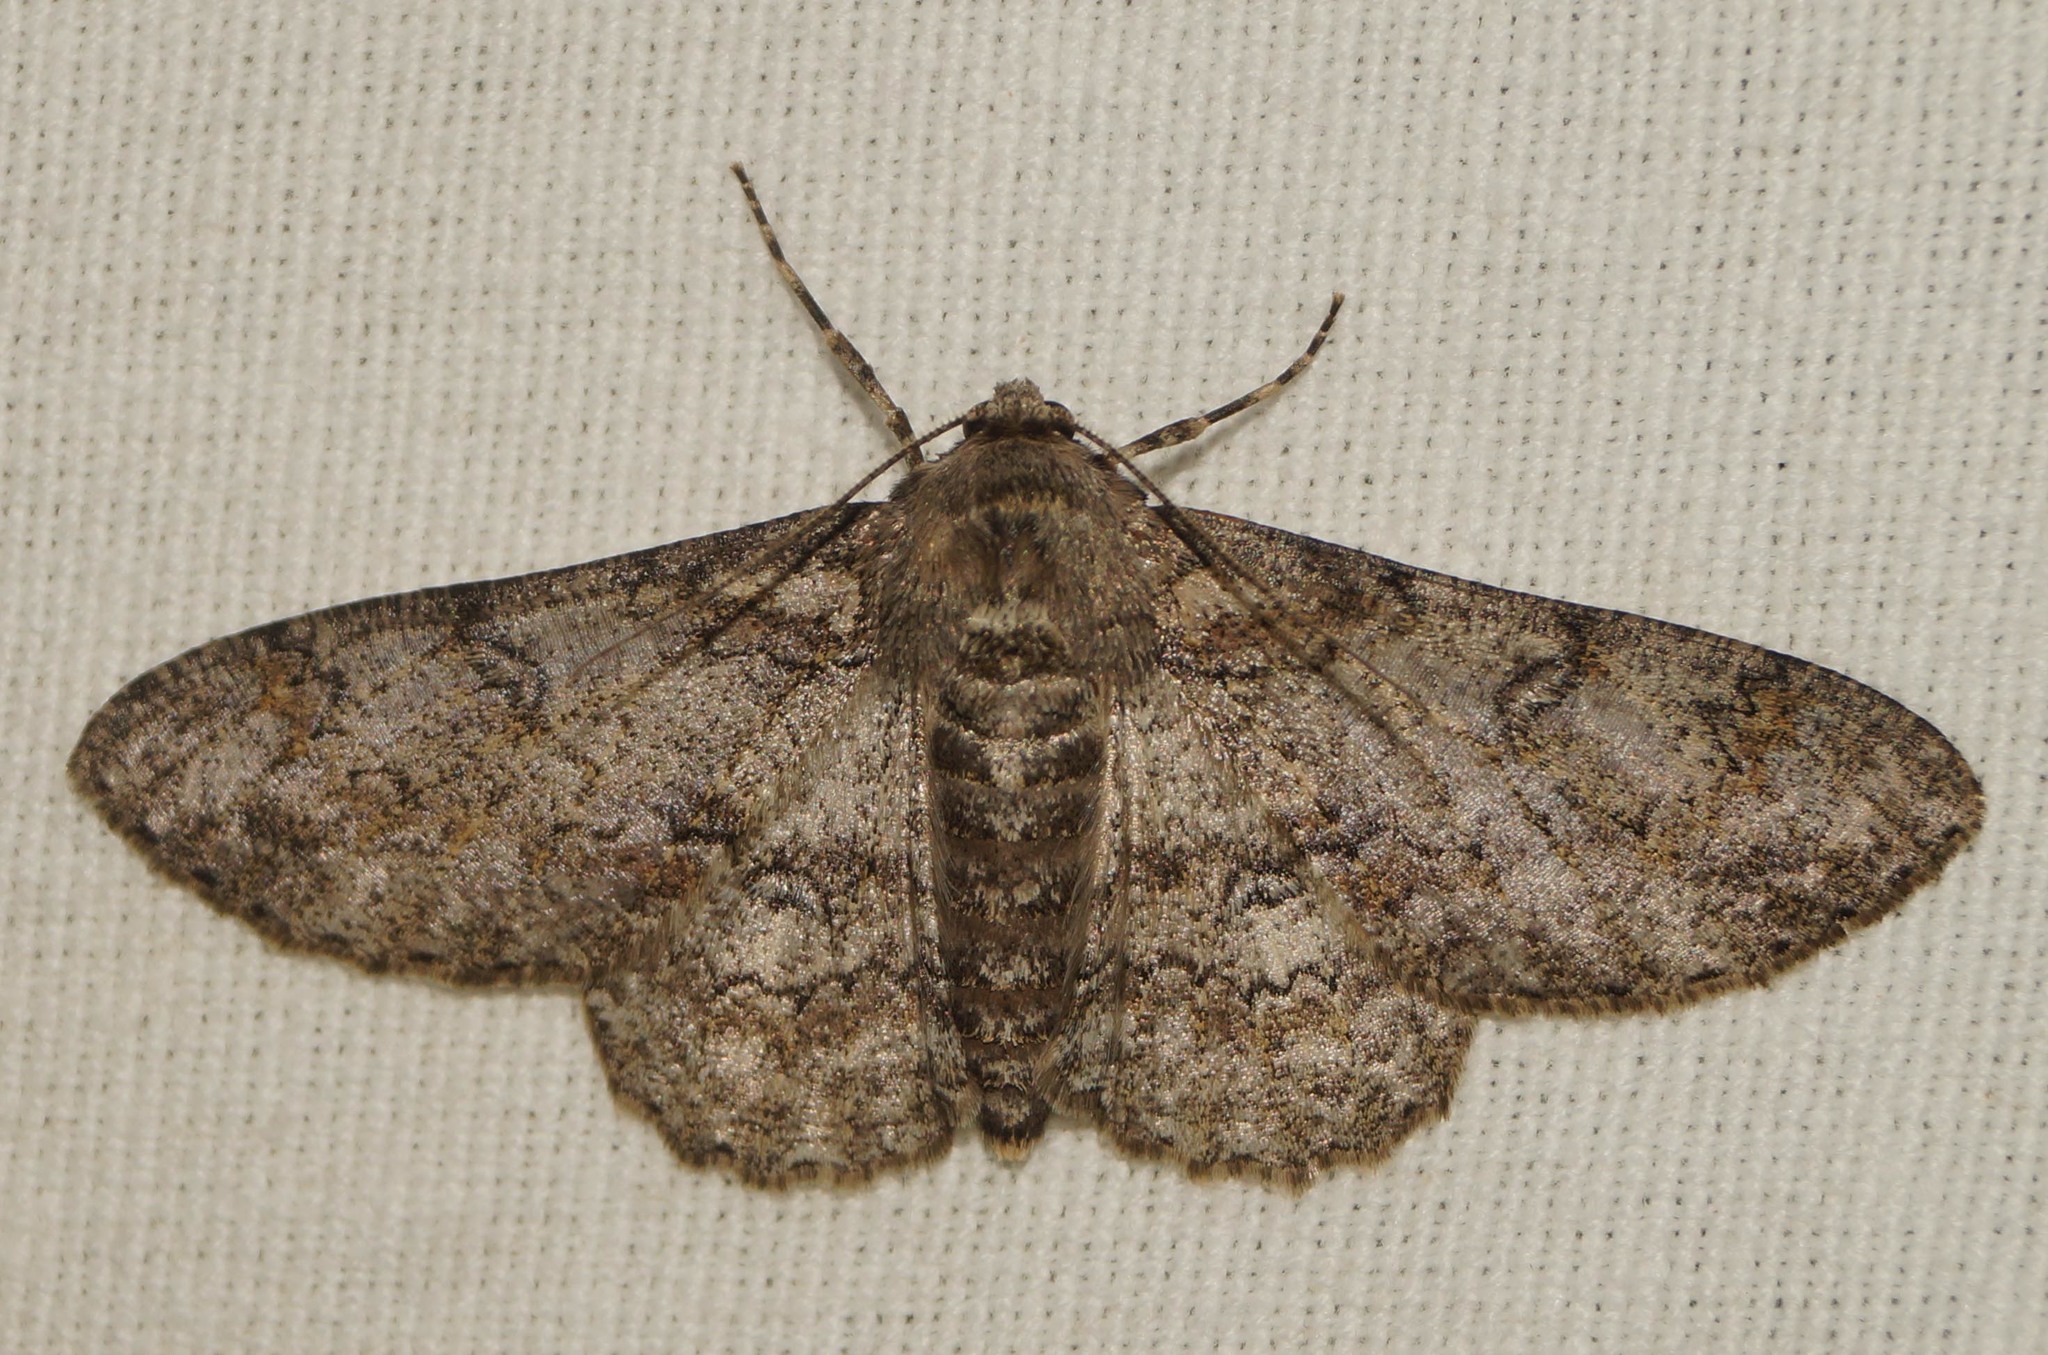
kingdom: Animalia
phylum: Arthropoda
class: Insecta
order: Lepidoptera
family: Geometridae
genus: Ascotis
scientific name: Ascotis selenaria
